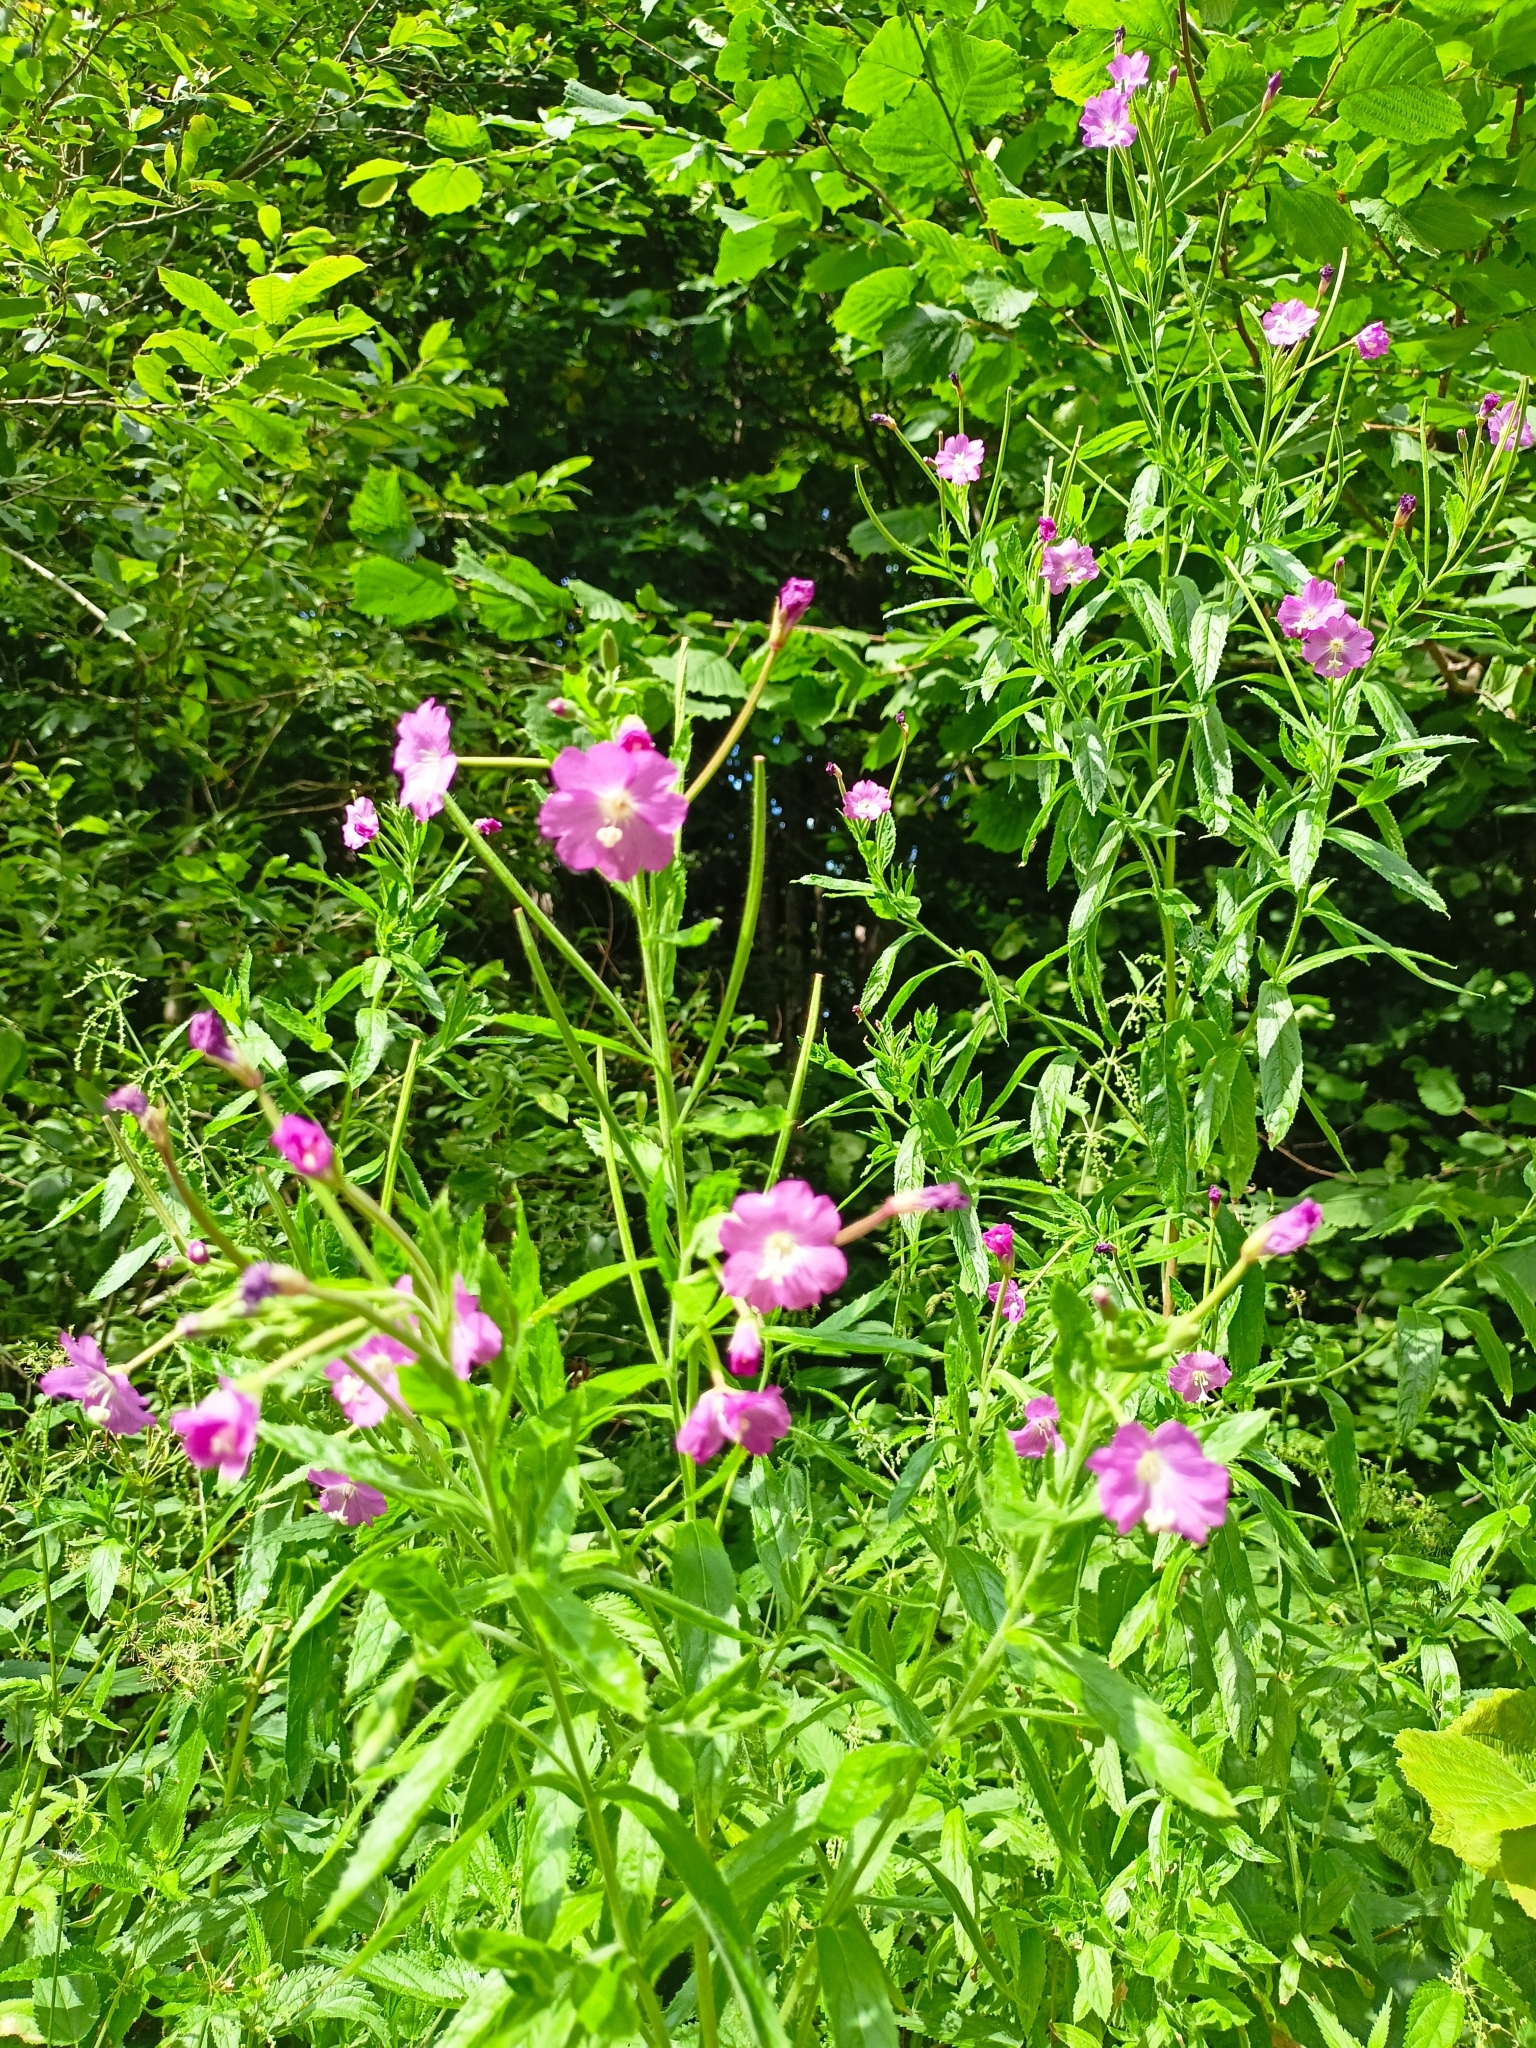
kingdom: Plantae
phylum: Tracheophyta
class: Magnoliopsida
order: Myrtales
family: Onagraceae
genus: Epilobium
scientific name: Epilobium hirsutum
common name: Great willowherb
